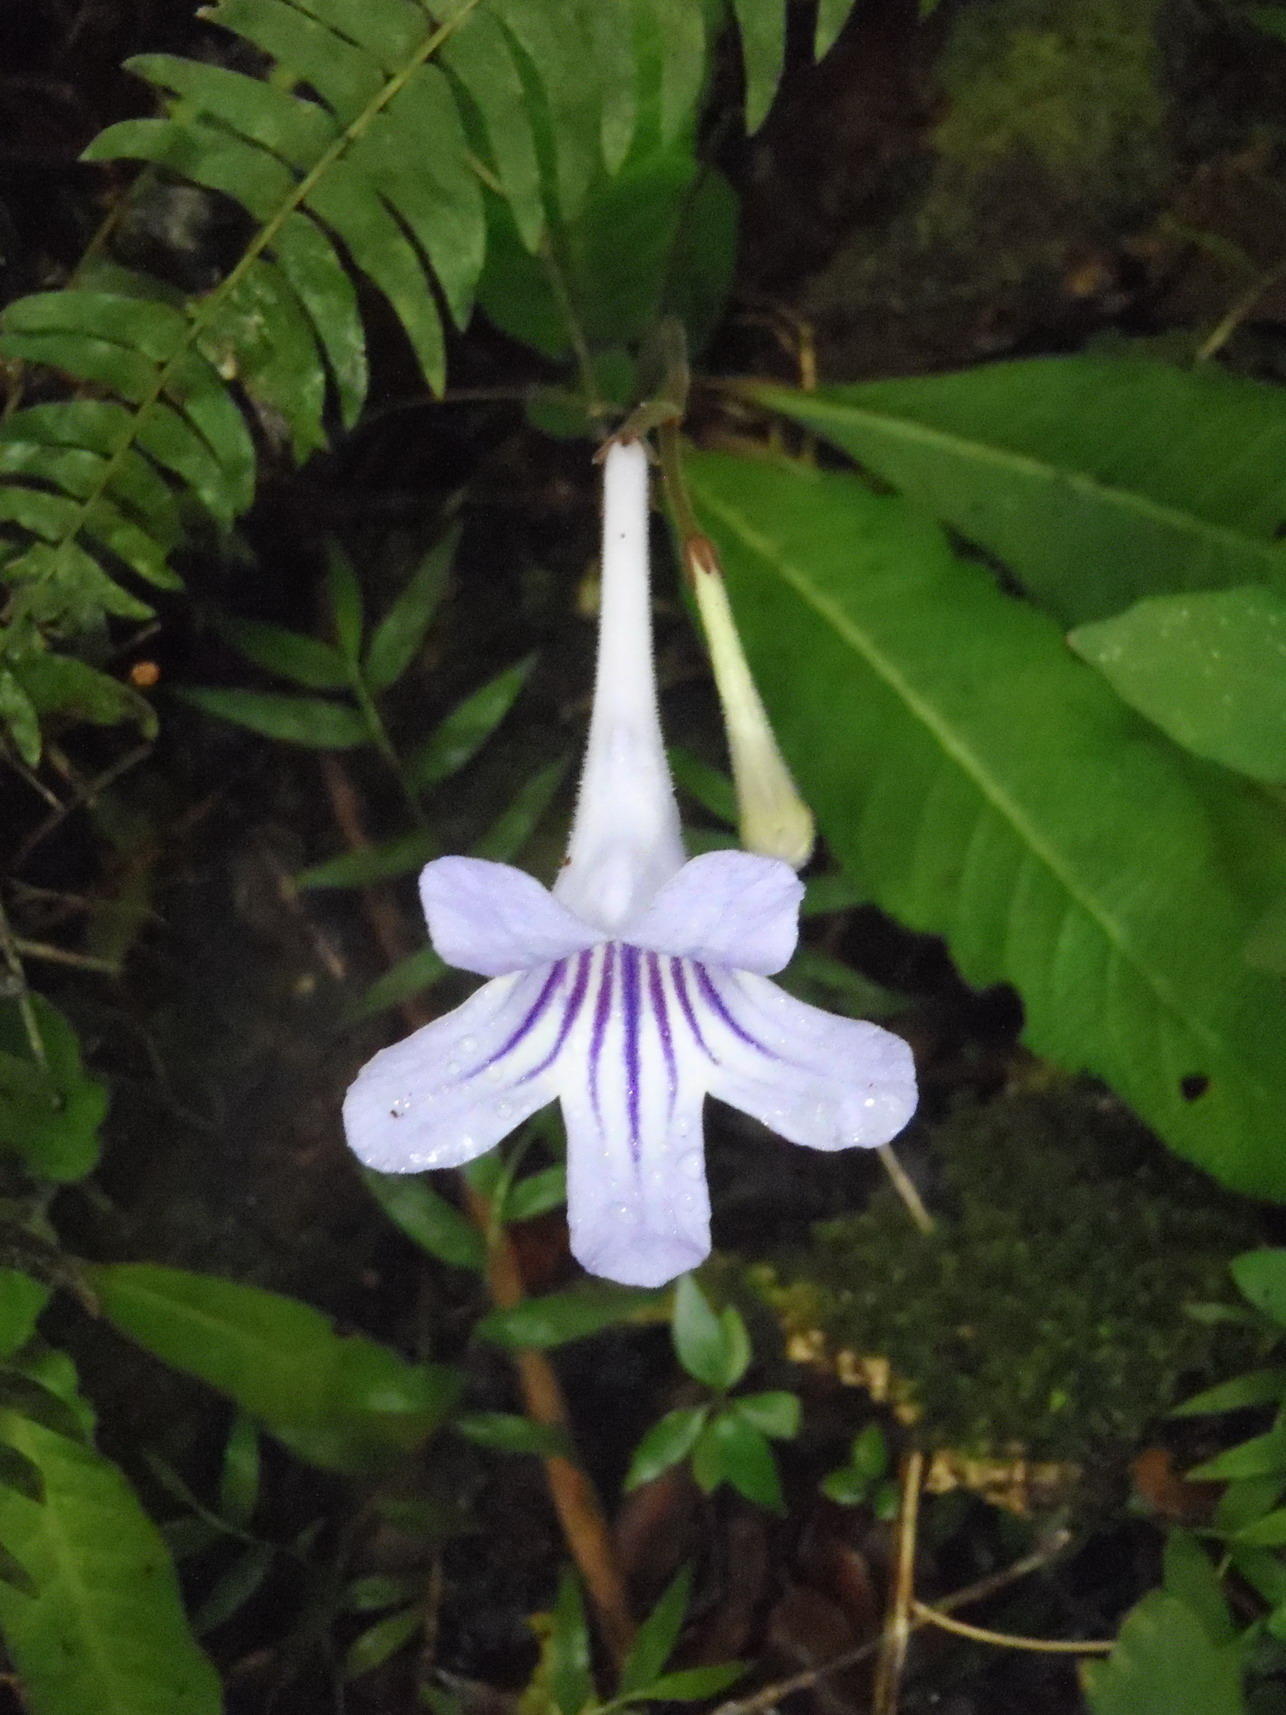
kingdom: Plantae
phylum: Tracheophyta
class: Magnoliopsida
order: Lamiales
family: Gesneriaceae
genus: Streptocarpus
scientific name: Streptocarpus rexii
